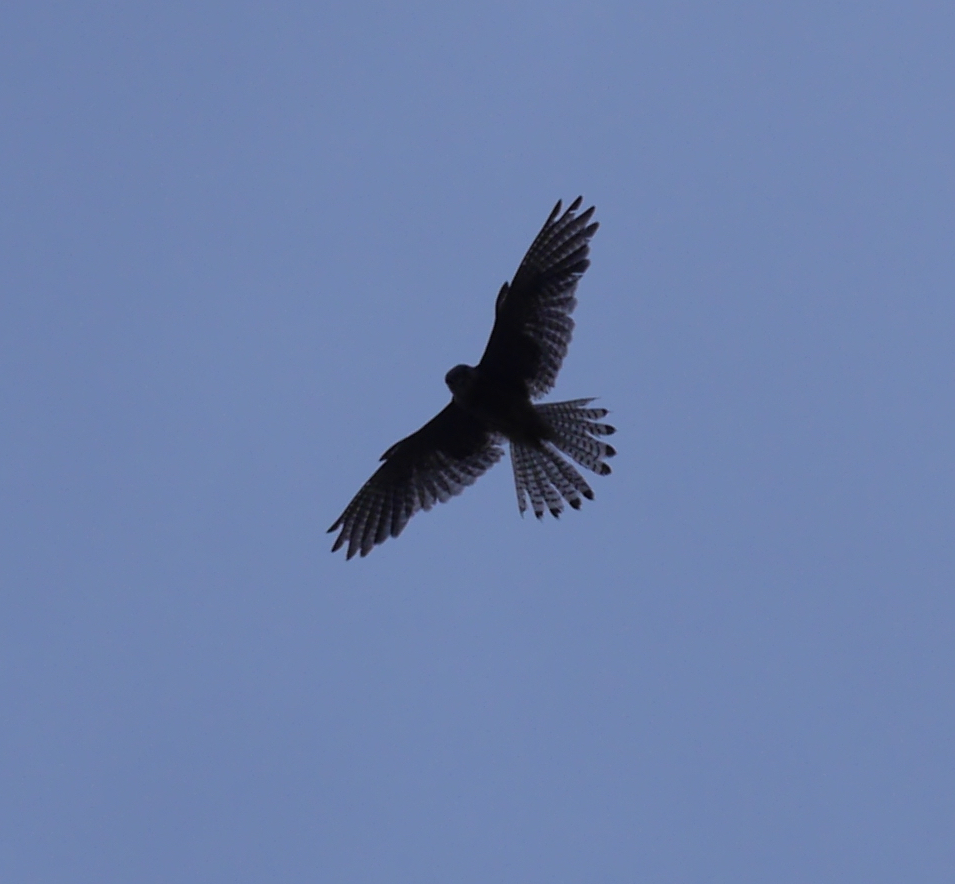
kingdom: Animalia
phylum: Chordata
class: Aves
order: Falconiformes
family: Falconidae
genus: Falco
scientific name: Falco tinnunculus
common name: Common kestrel
